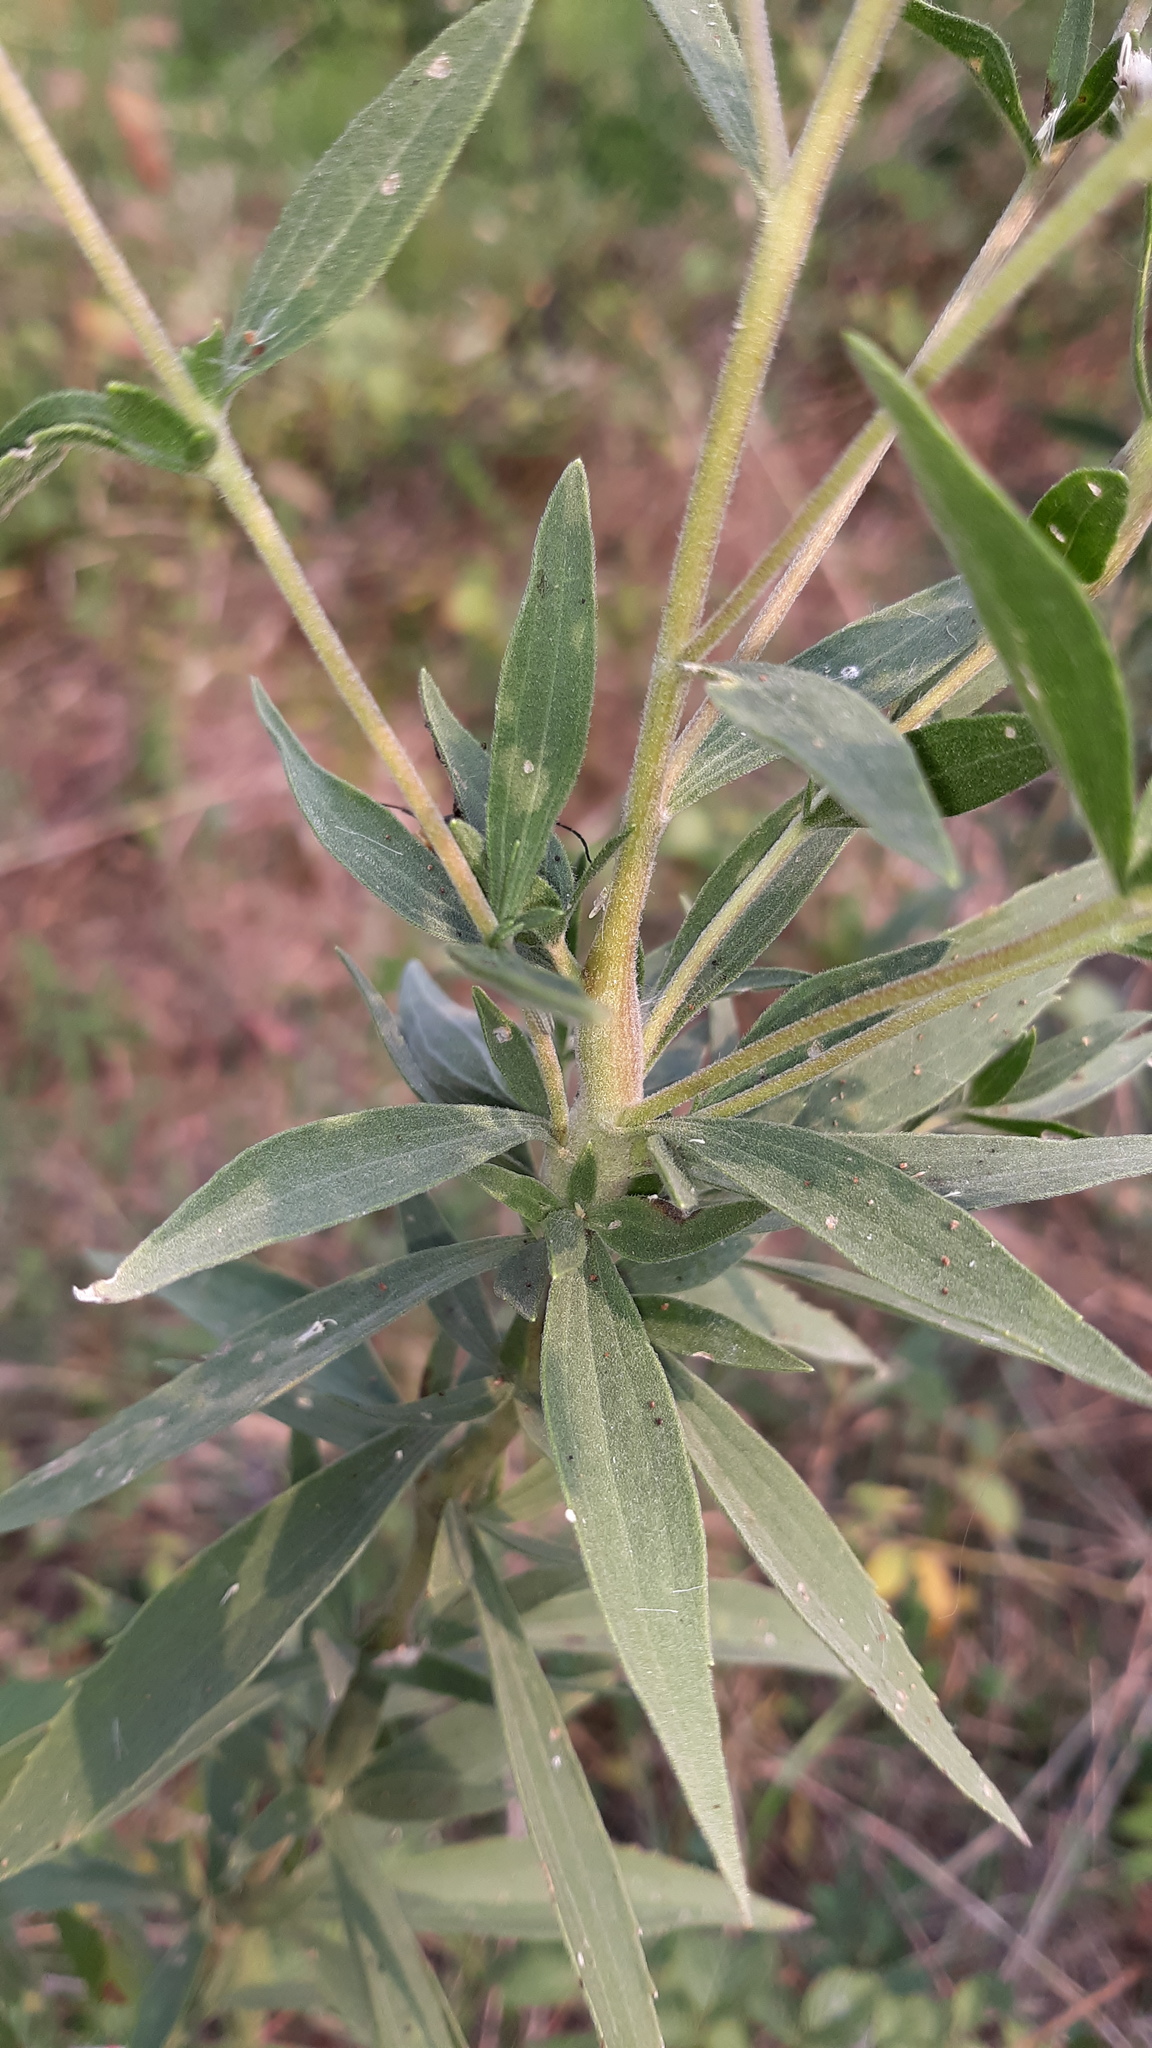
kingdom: Plantae
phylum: Tracheophyta
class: Magnoliopsida
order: Asterales
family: Asteraceae
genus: Eupatorium
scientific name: Eupatorium altissimum
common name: Tall thoroughwort
